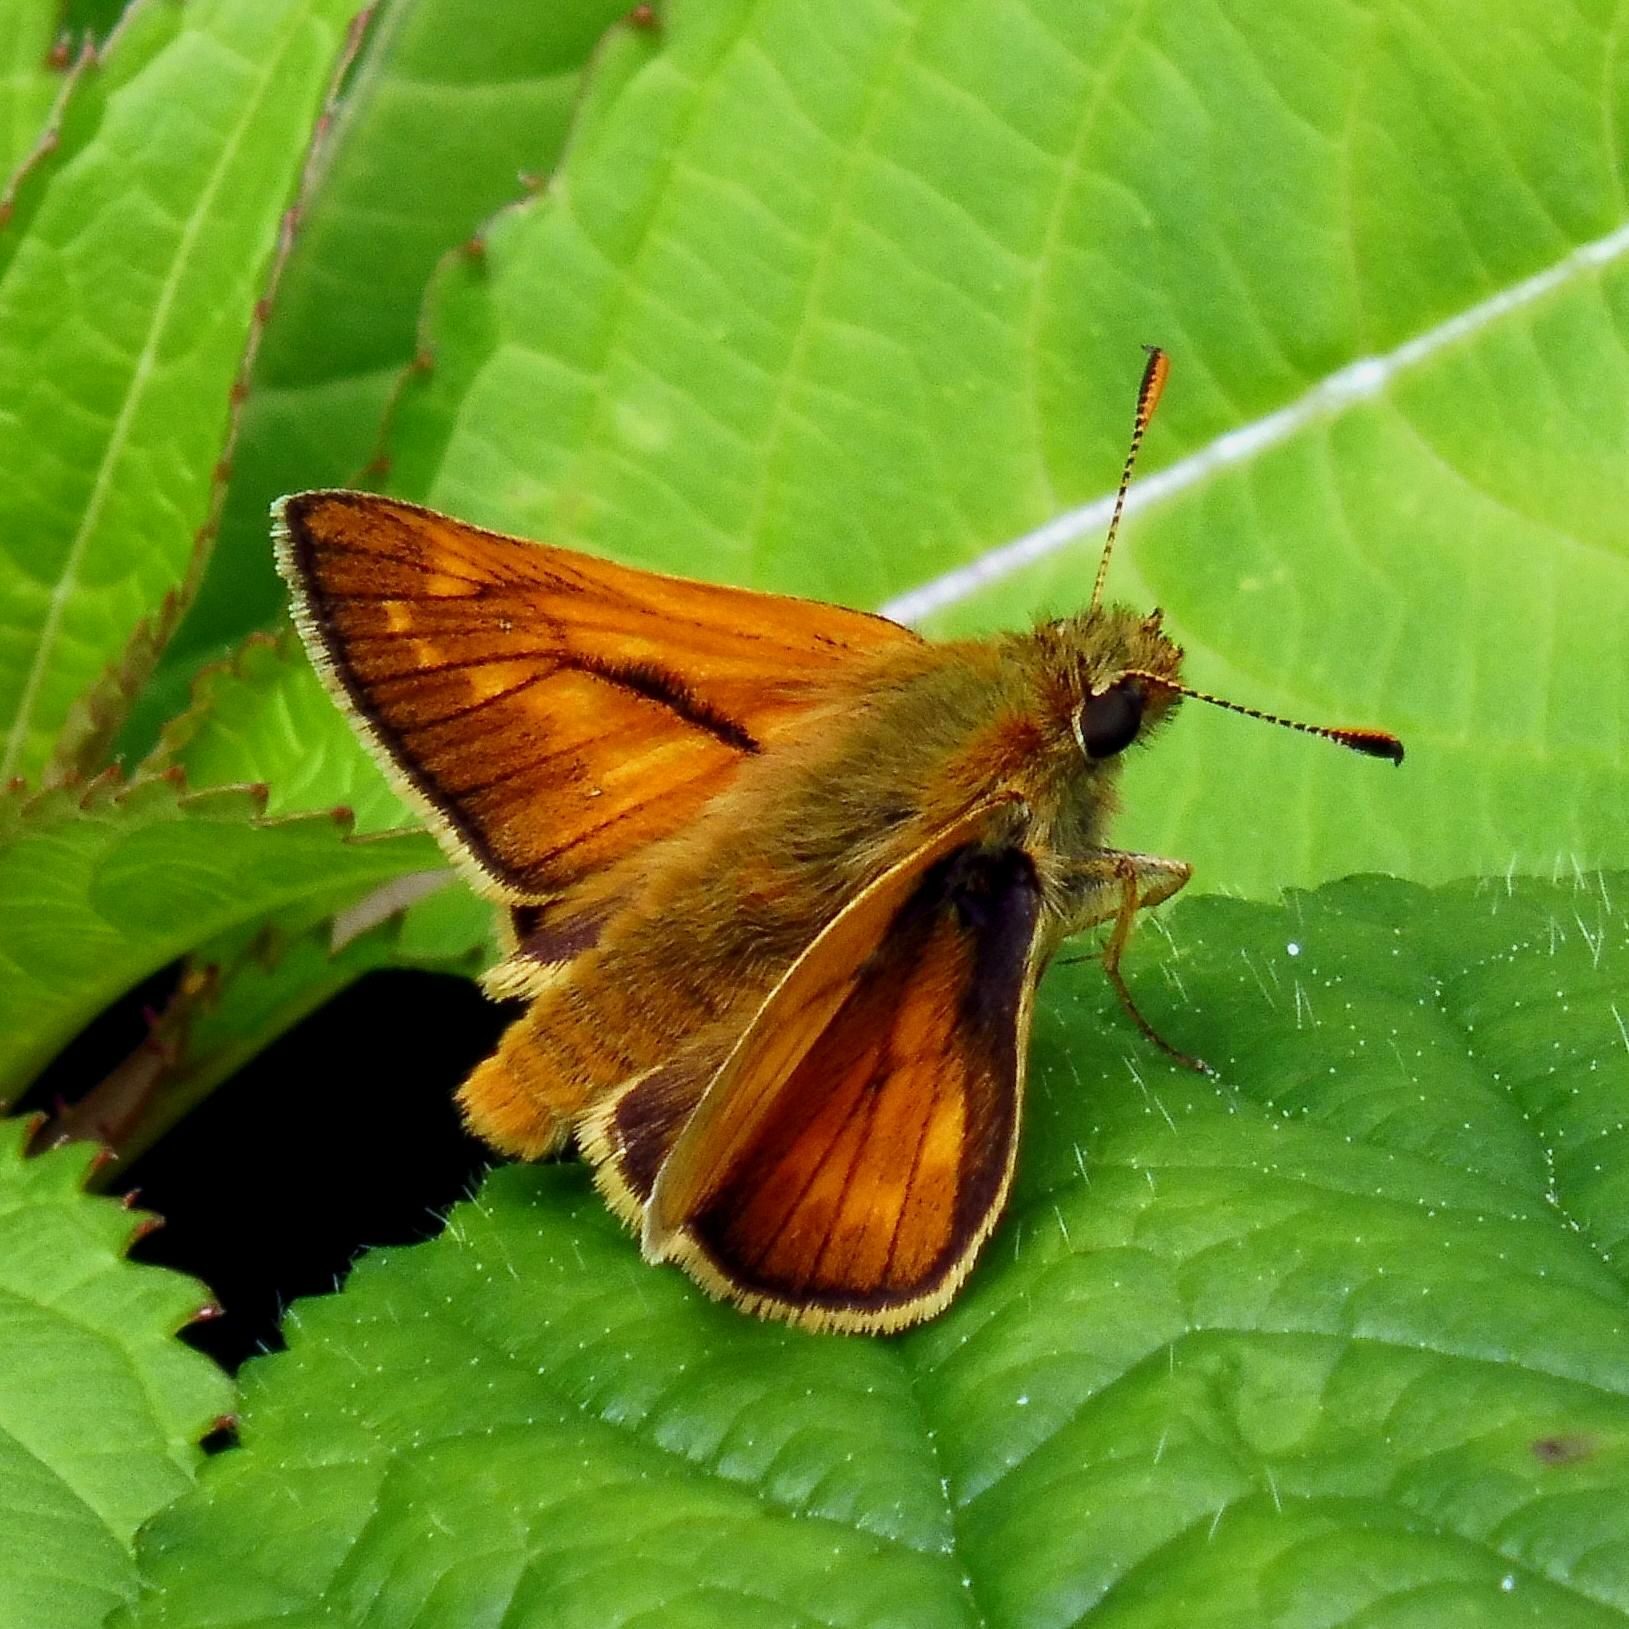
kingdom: Animalia
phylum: Arthropoda
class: Insecta
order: Lepidoptera
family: Hesperiidae
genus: Ochlodes
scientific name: Ochlodes venata
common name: Large skipper
